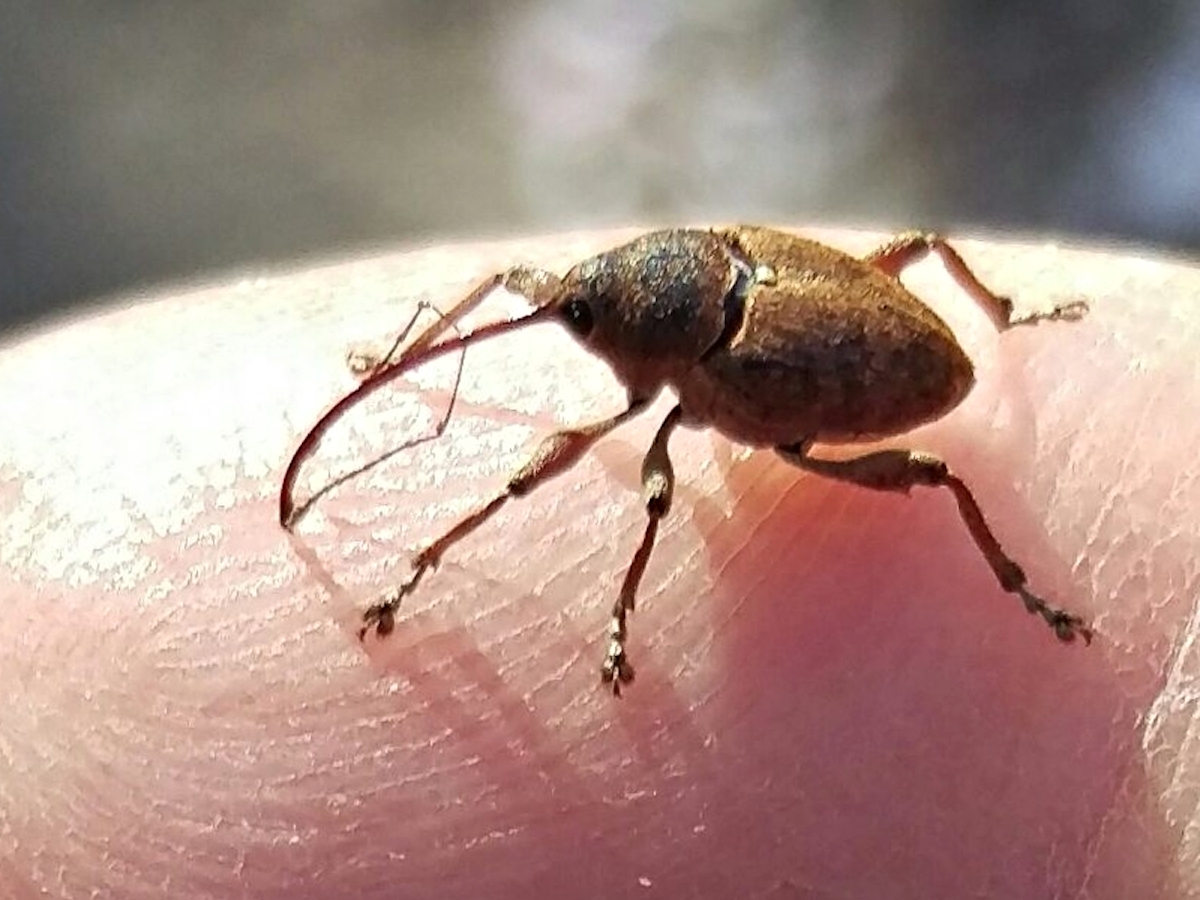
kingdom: Animalia
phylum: Arthropoda
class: Insecta
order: Coleoptera
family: Curculionidae
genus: Curculio
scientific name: Curculio glandium
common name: Acorn weevil
